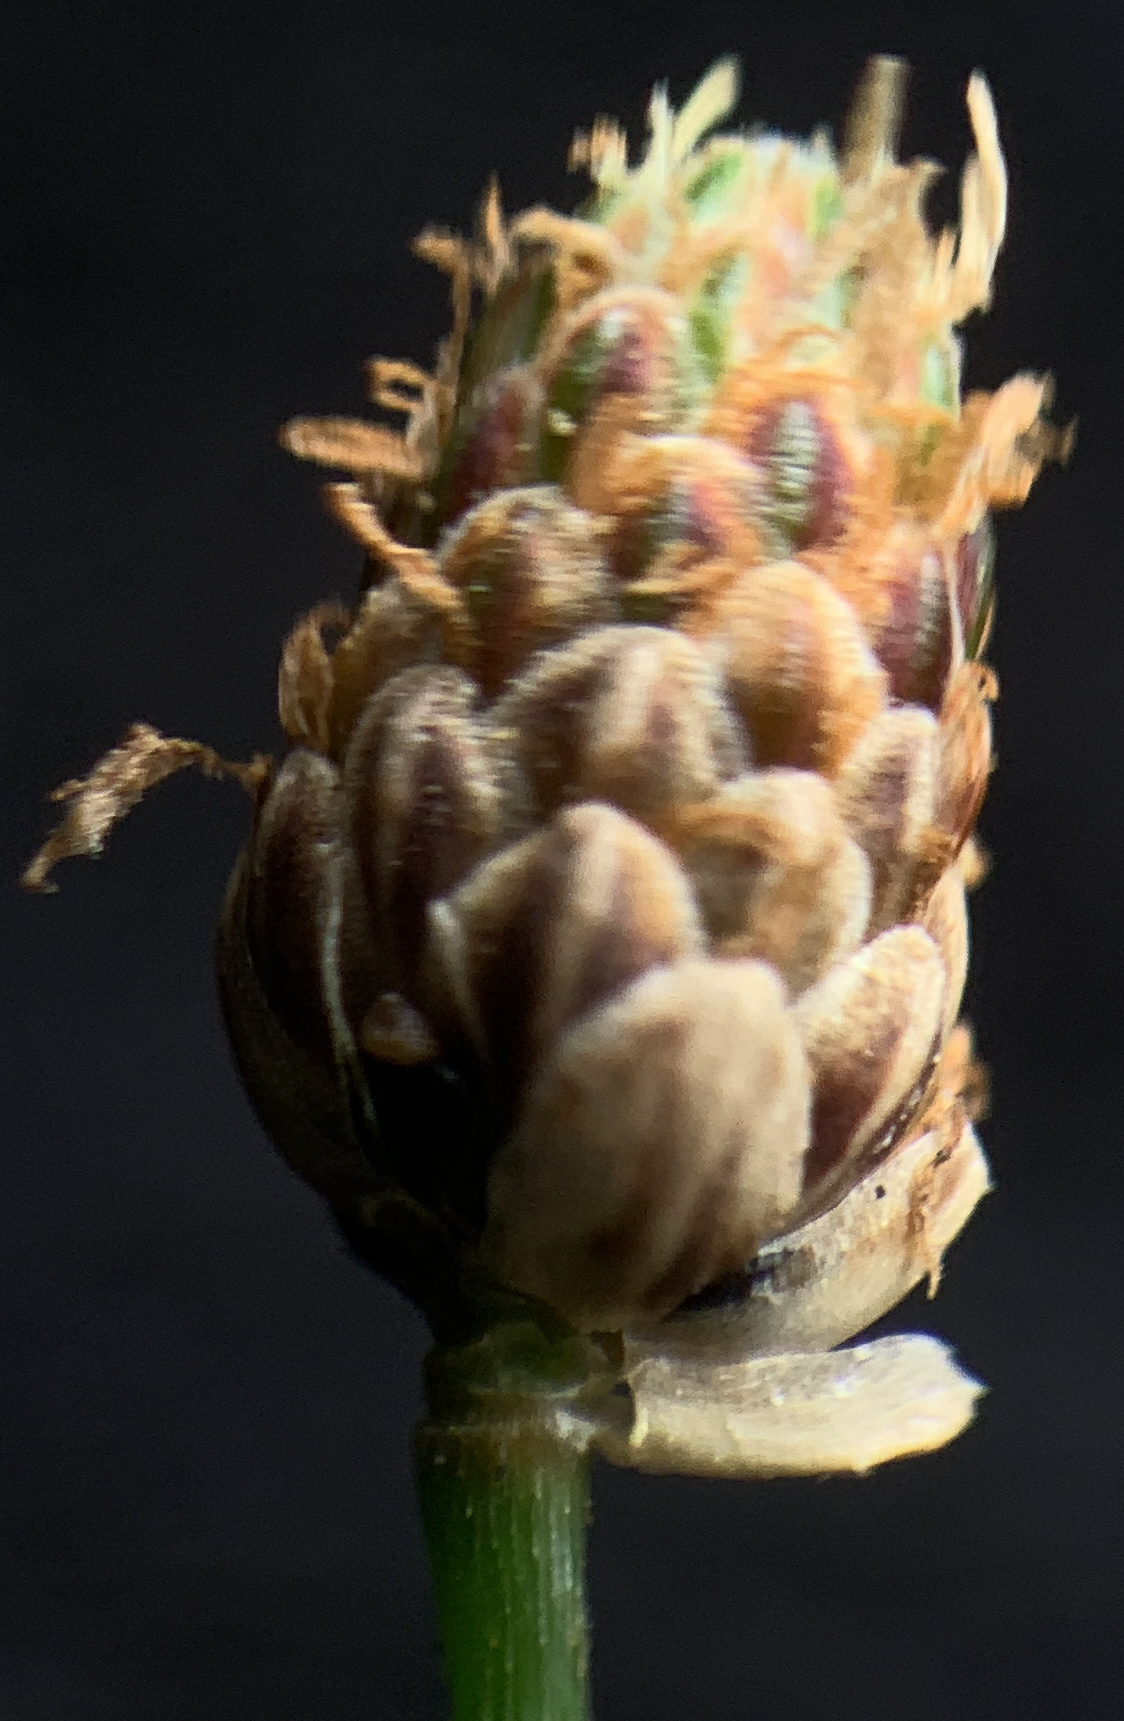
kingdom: Plantae
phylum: Tracheophyta
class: Liliopsida
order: Poales
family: Cyperaceae
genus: Eleocharis
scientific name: Eleocharis geniculata
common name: Canada spikesedge
